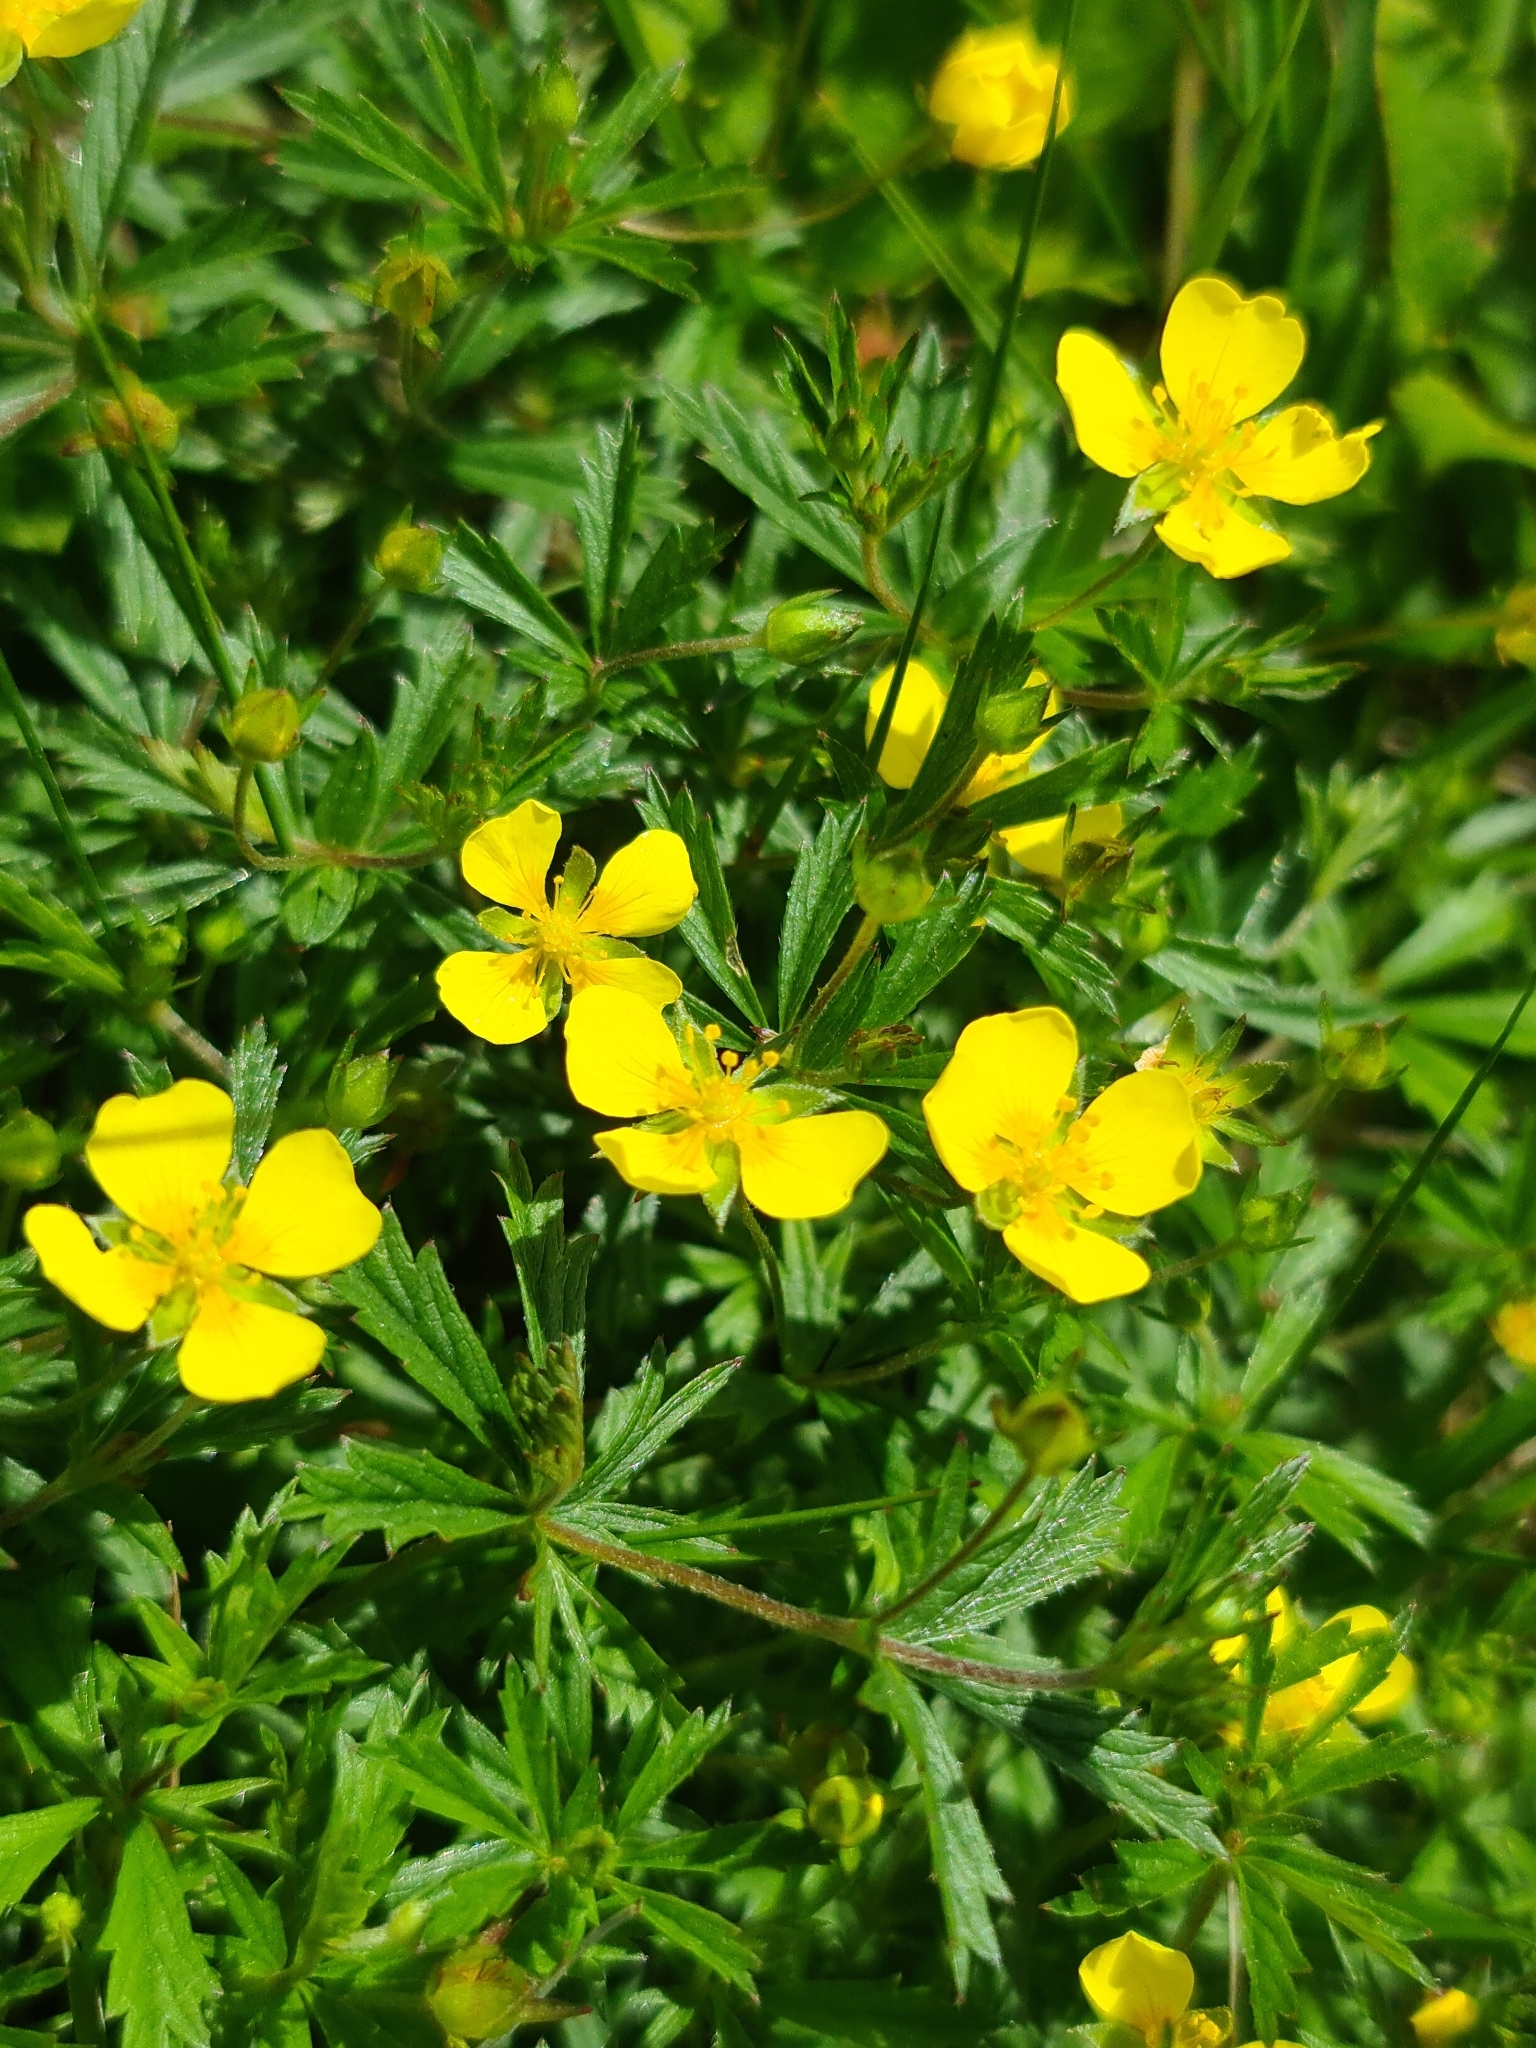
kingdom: Plantae
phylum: Tracheophyta
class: Magnoliopsida
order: Rosales
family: Rosaceae
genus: Potentilla
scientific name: Potentilla erecta
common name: Tormentil
